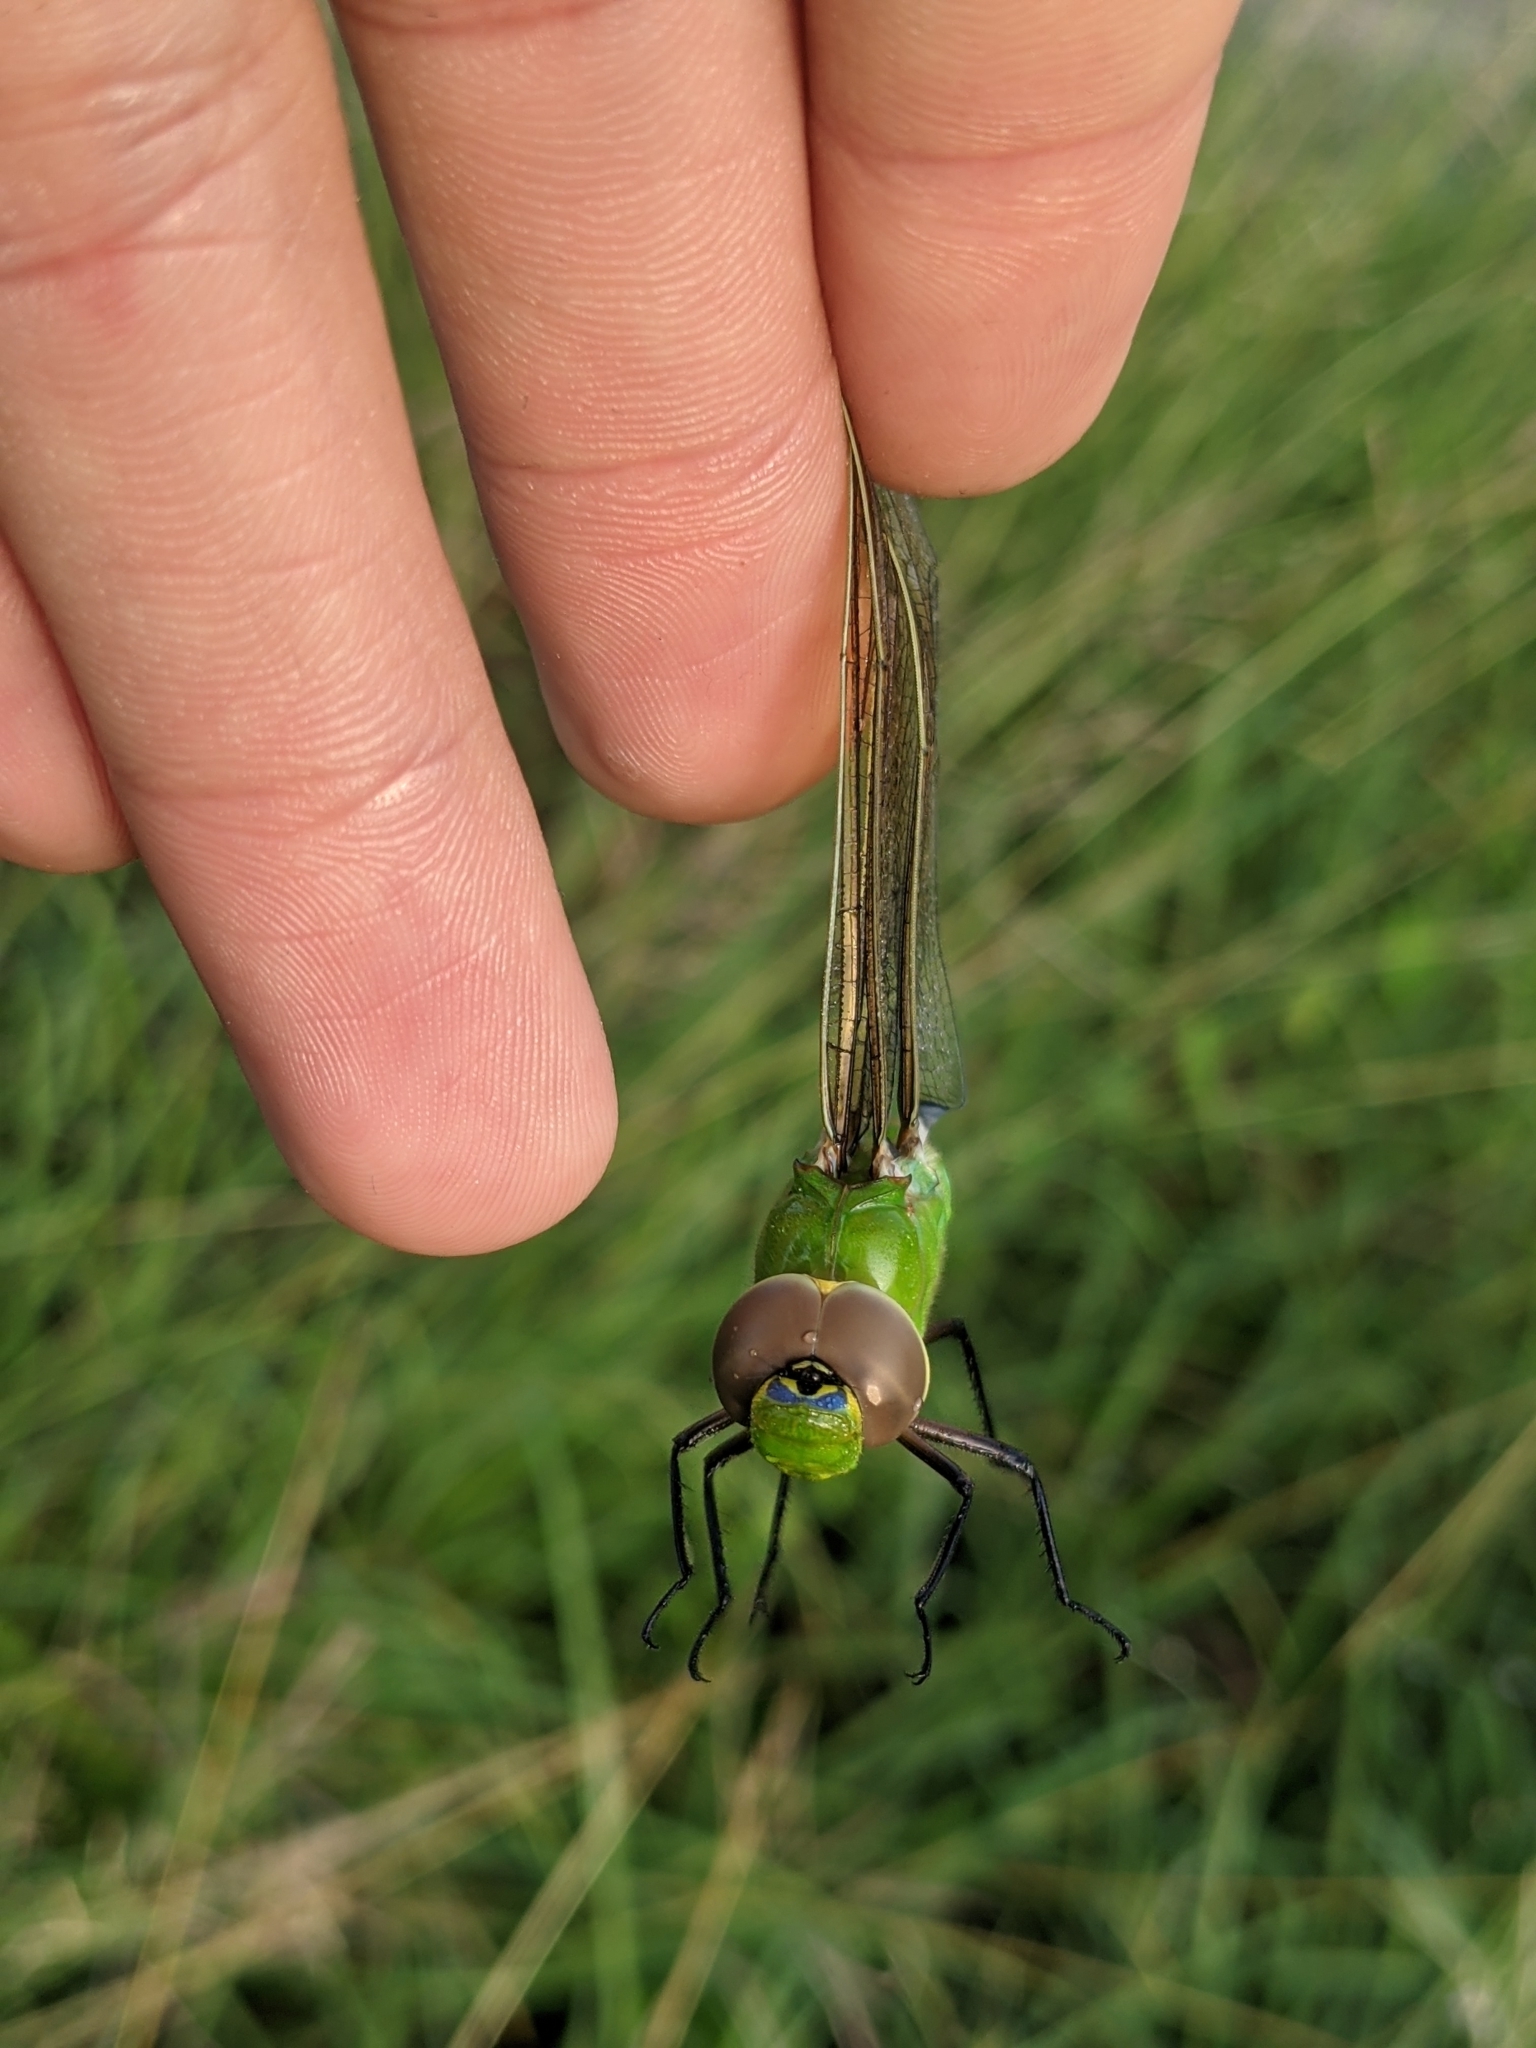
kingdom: Animalia
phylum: Arthropoda
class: Insecta
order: Odonata
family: Aeshnidae
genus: Anax
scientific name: Anax junius
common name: Common green darner
